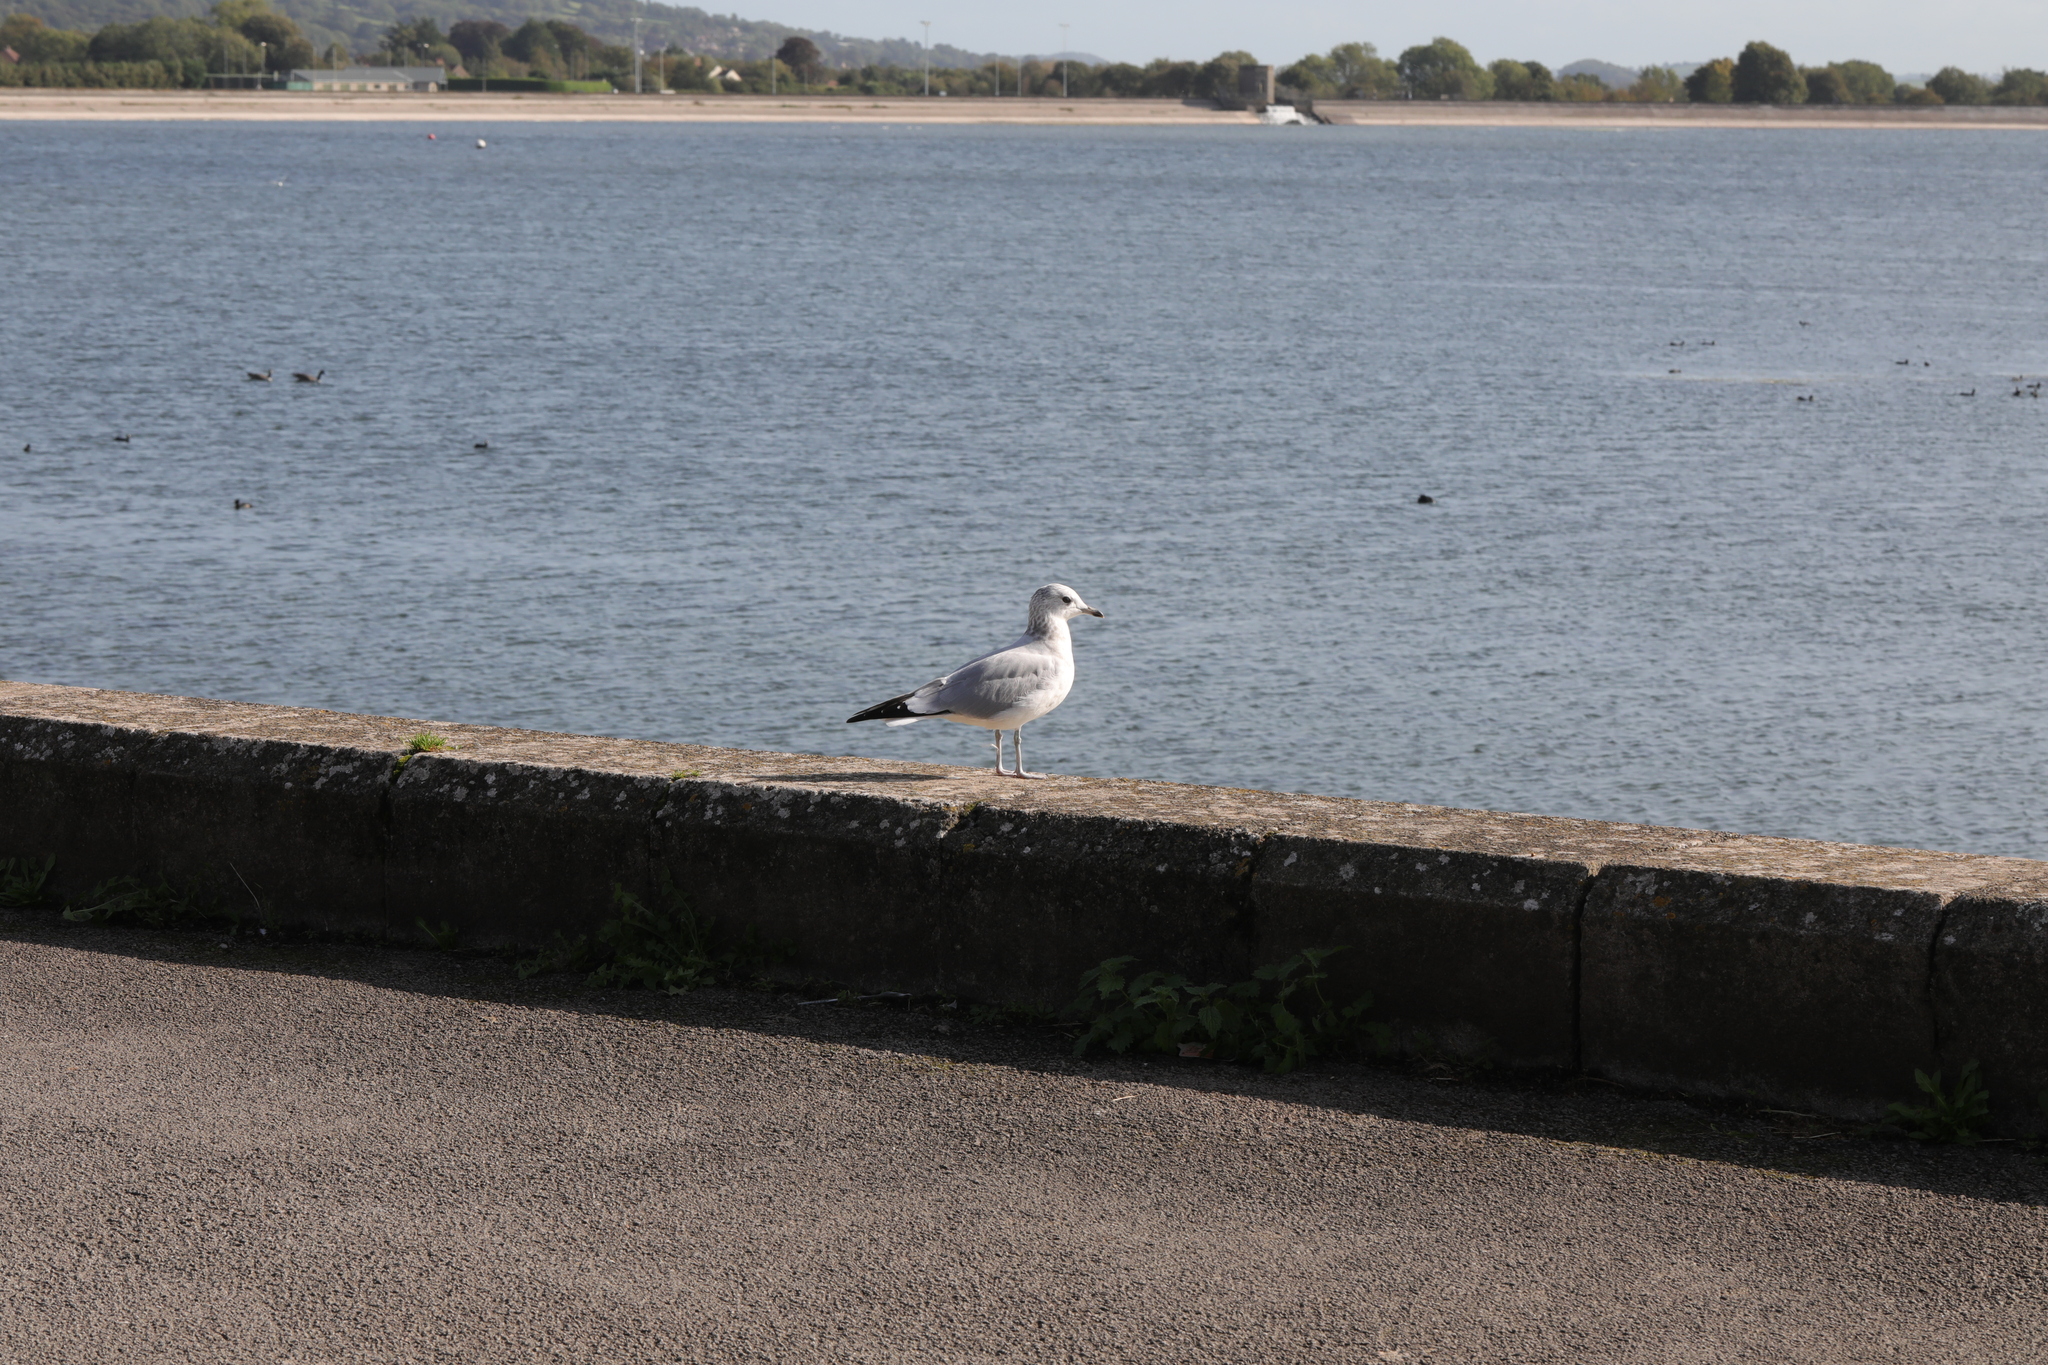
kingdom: Animalia
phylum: Chordata
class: Aves
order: Charadriiformes
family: Laridae
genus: Chroicocephalus
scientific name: Chroicocephalus ridibundus
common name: Black-headed gull
